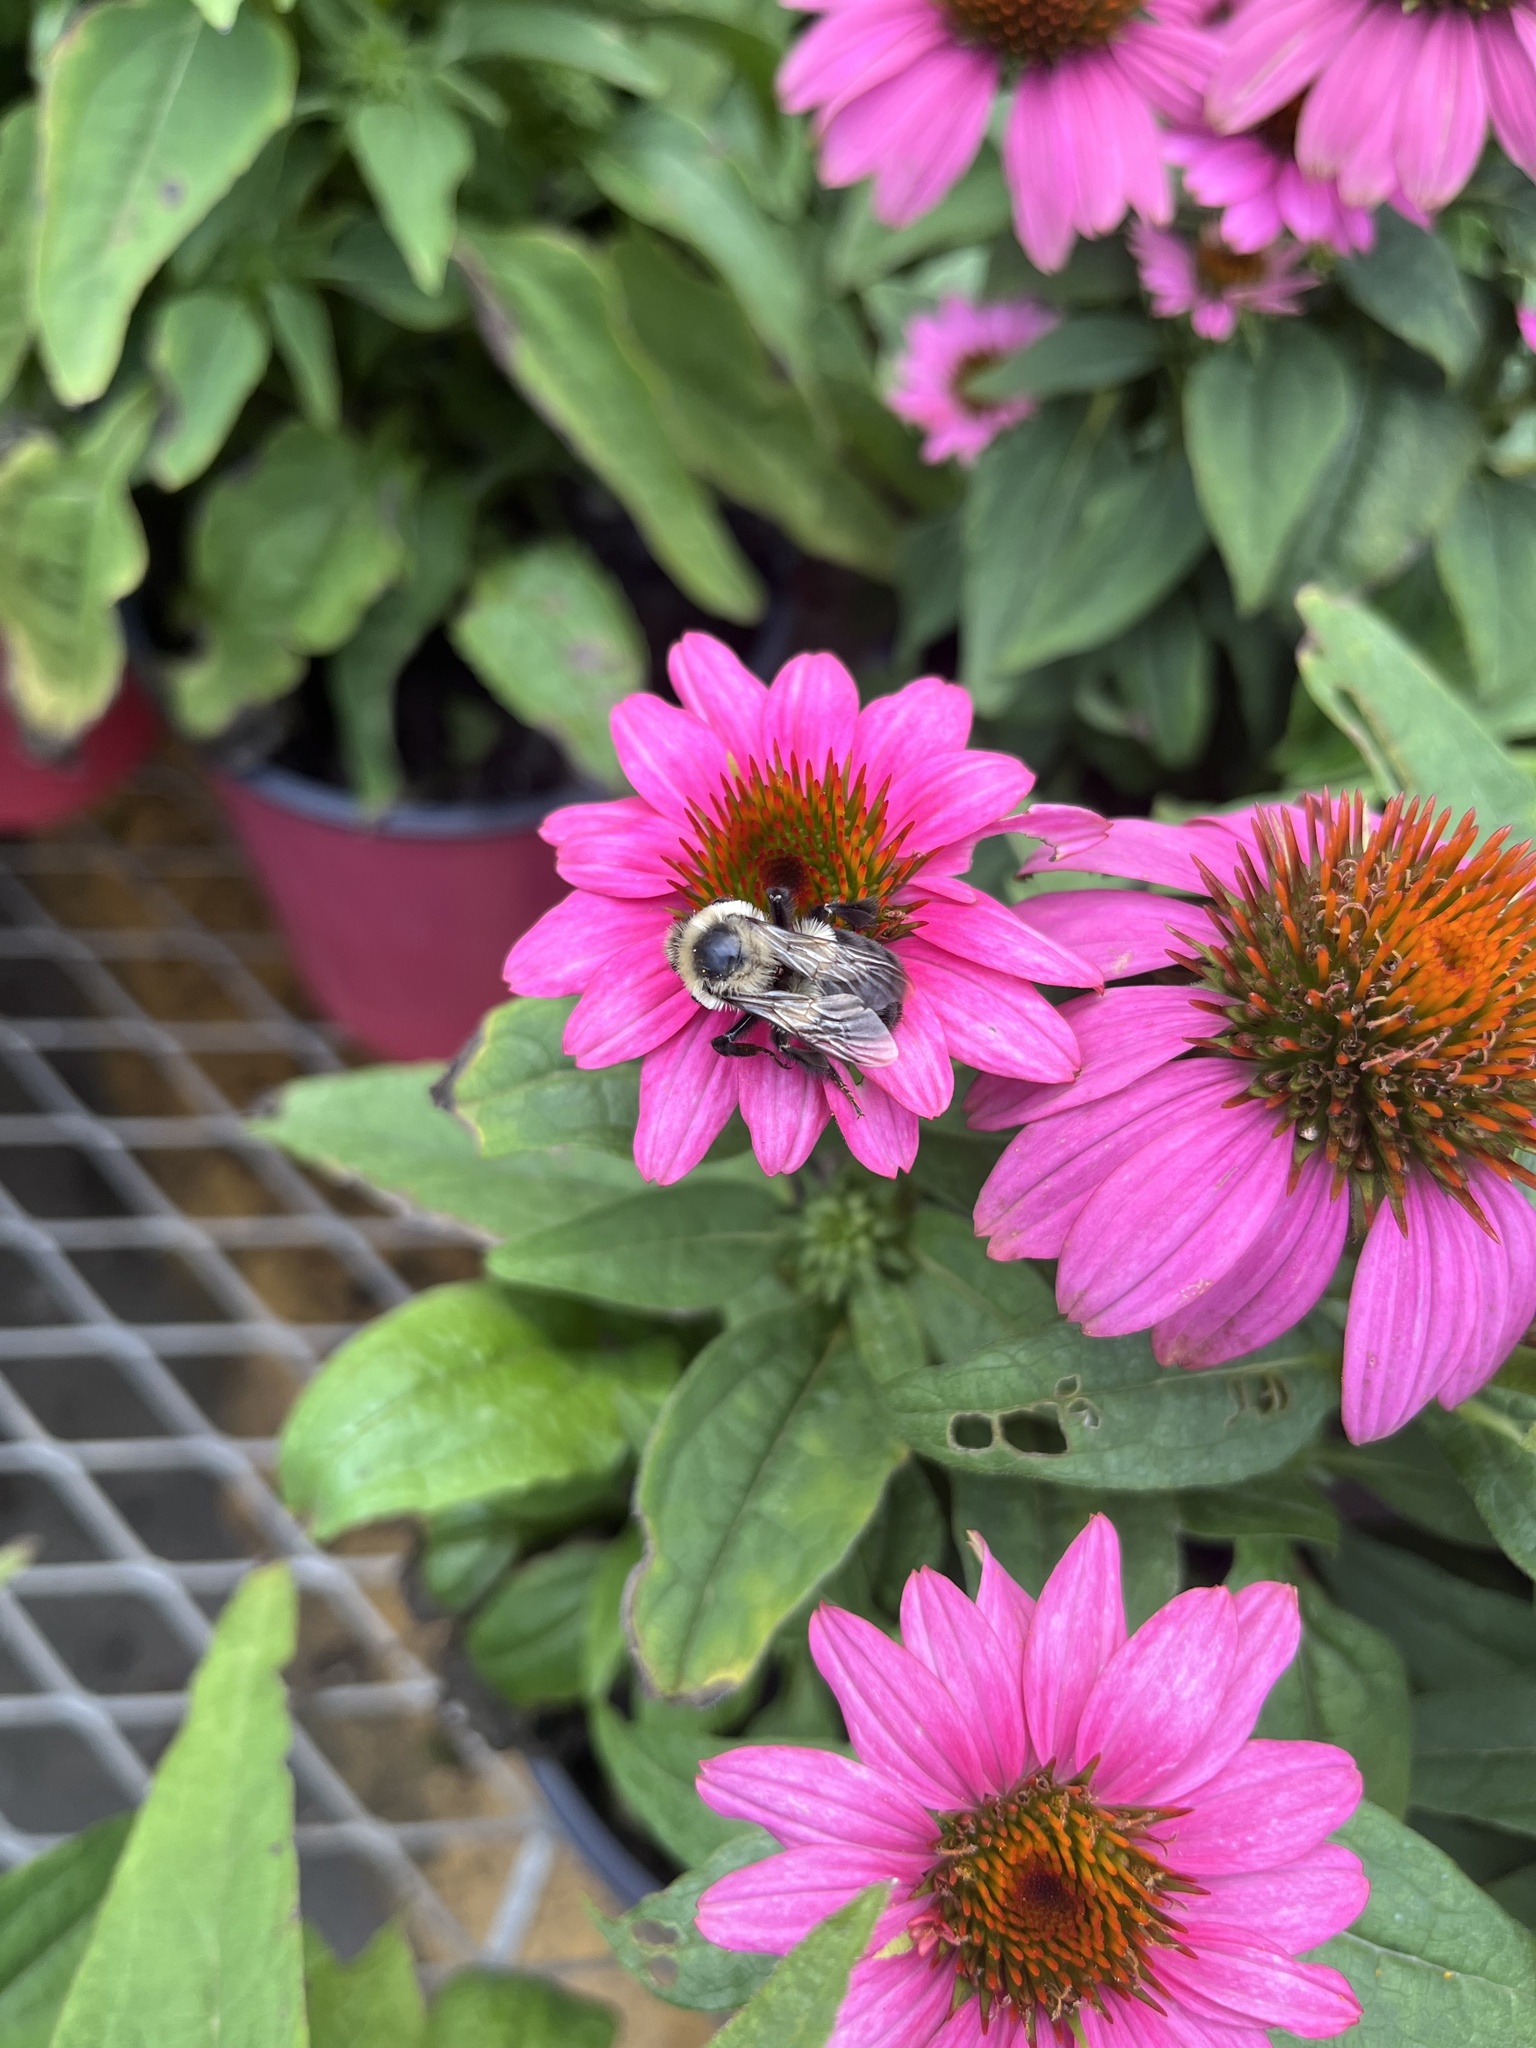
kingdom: Animalia
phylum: Arthropoda
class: Insecta
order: Hymenoptera
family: Apidae
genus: Bombus
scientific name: Bombus impatiens
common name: Common eastern bumble bee
